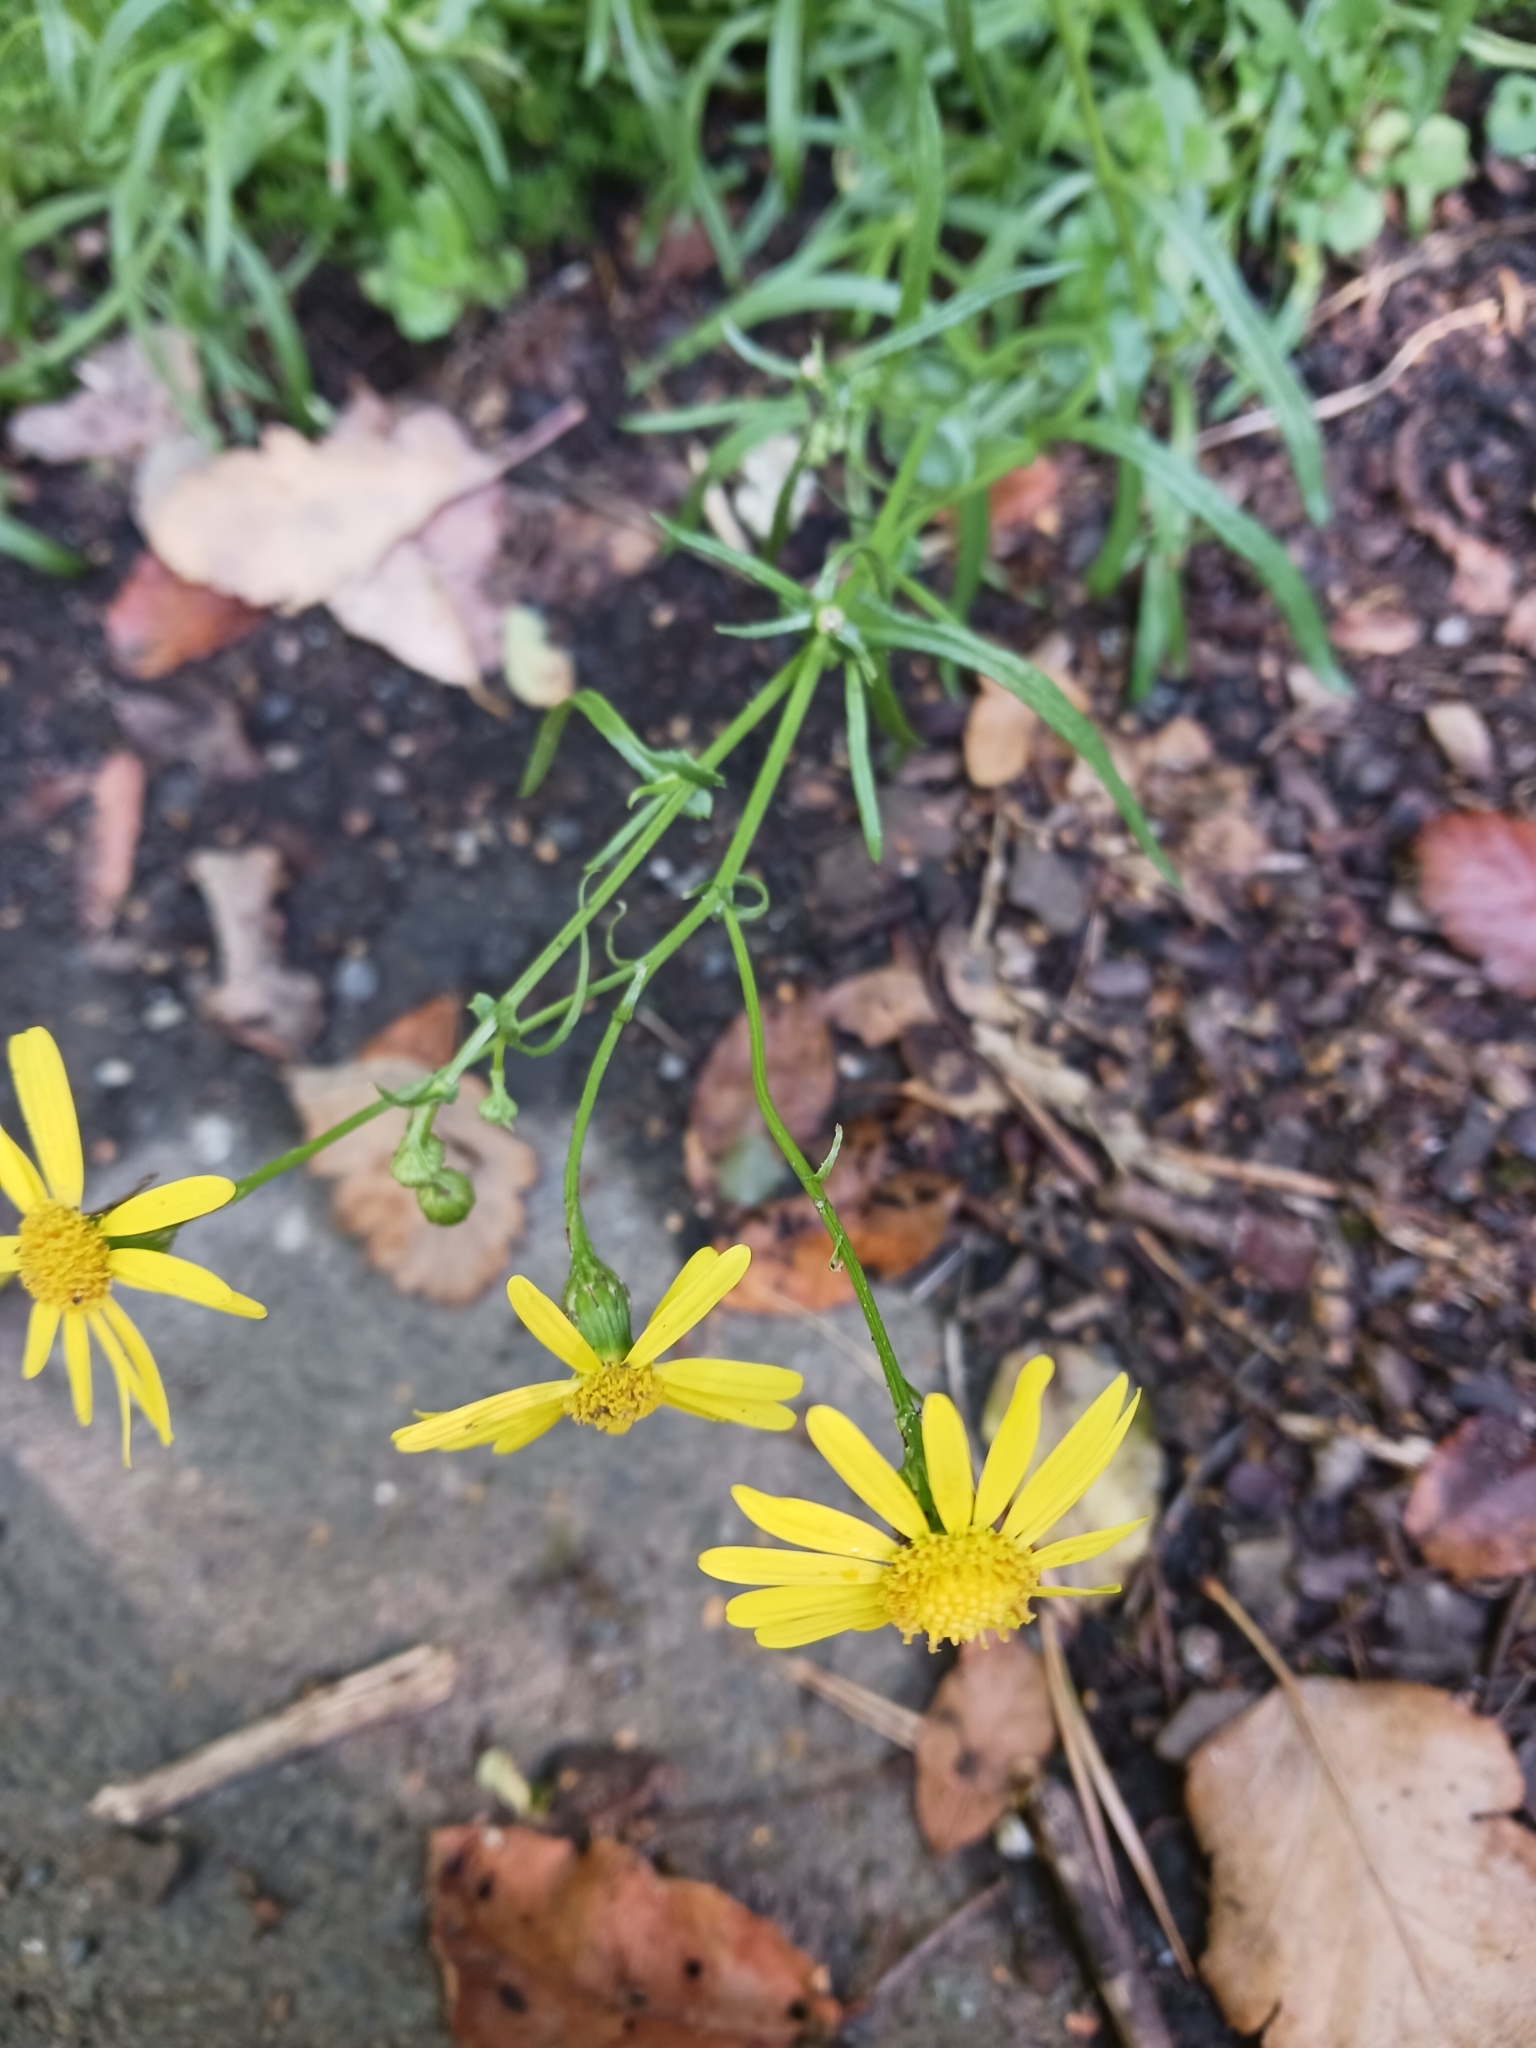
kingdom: Plantae
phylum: Tracheophyta
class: Magnoliopsida
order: Asterales
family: Asteraceae
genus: Senecio
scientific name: Senecio inaequidens
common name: Narrow-leaved ragwort
